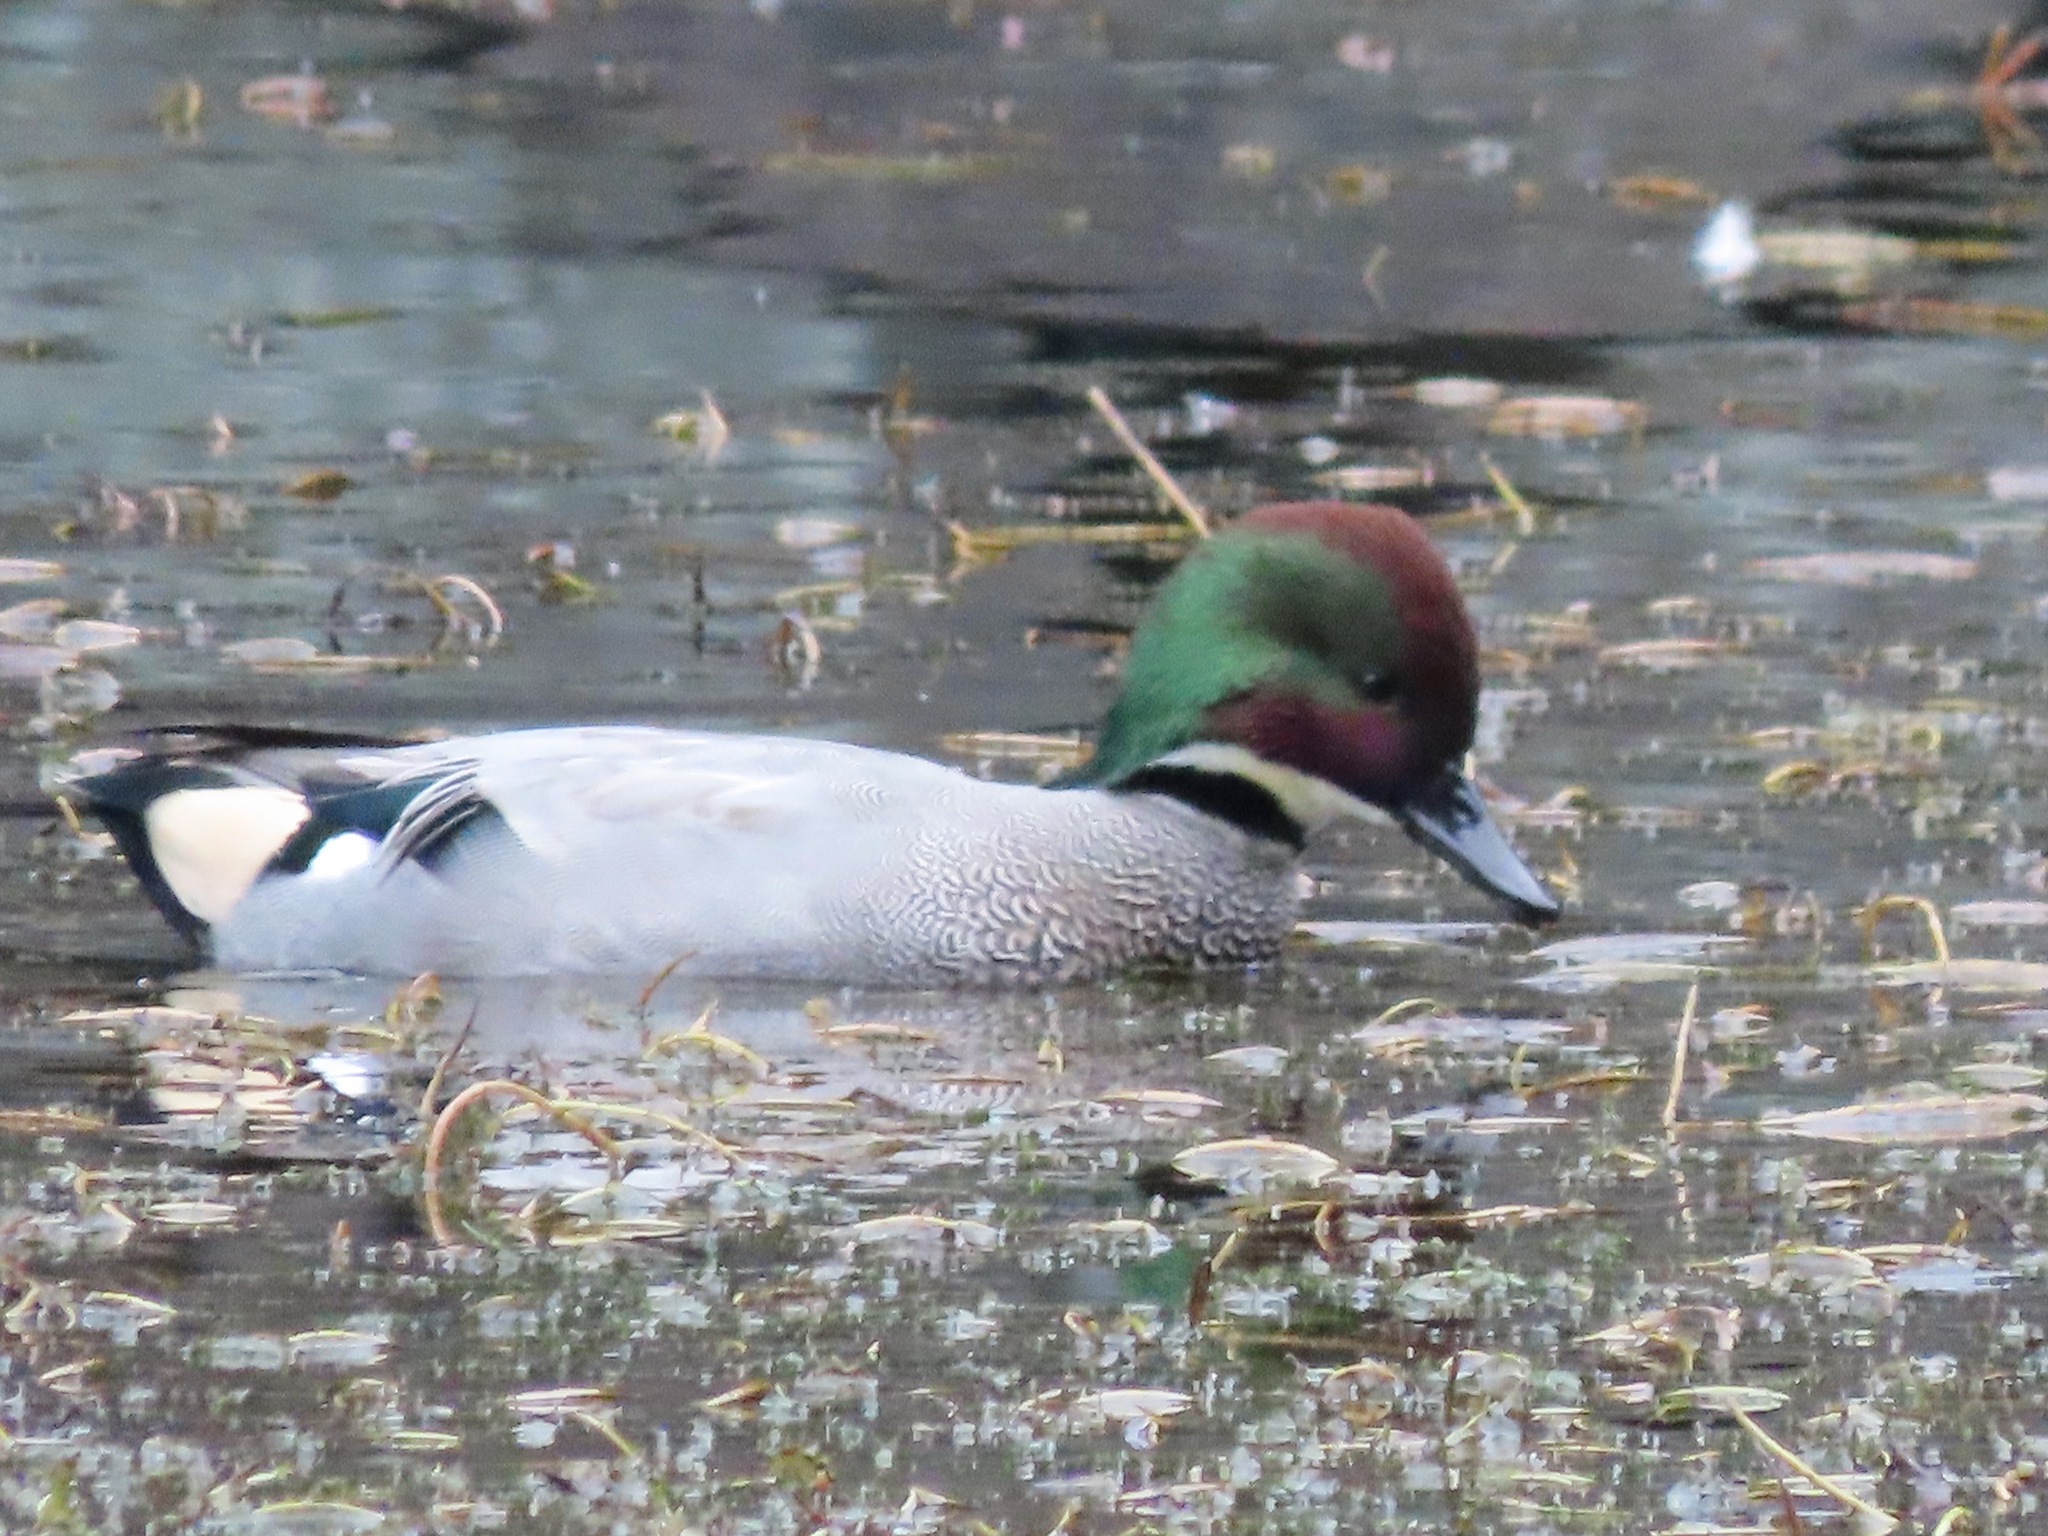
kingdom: Animalia
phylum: Chordata
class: Aves
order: Anseriformes
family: Anatidae
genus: Mareca
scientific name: Mareca falcata
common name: Falcated duck
